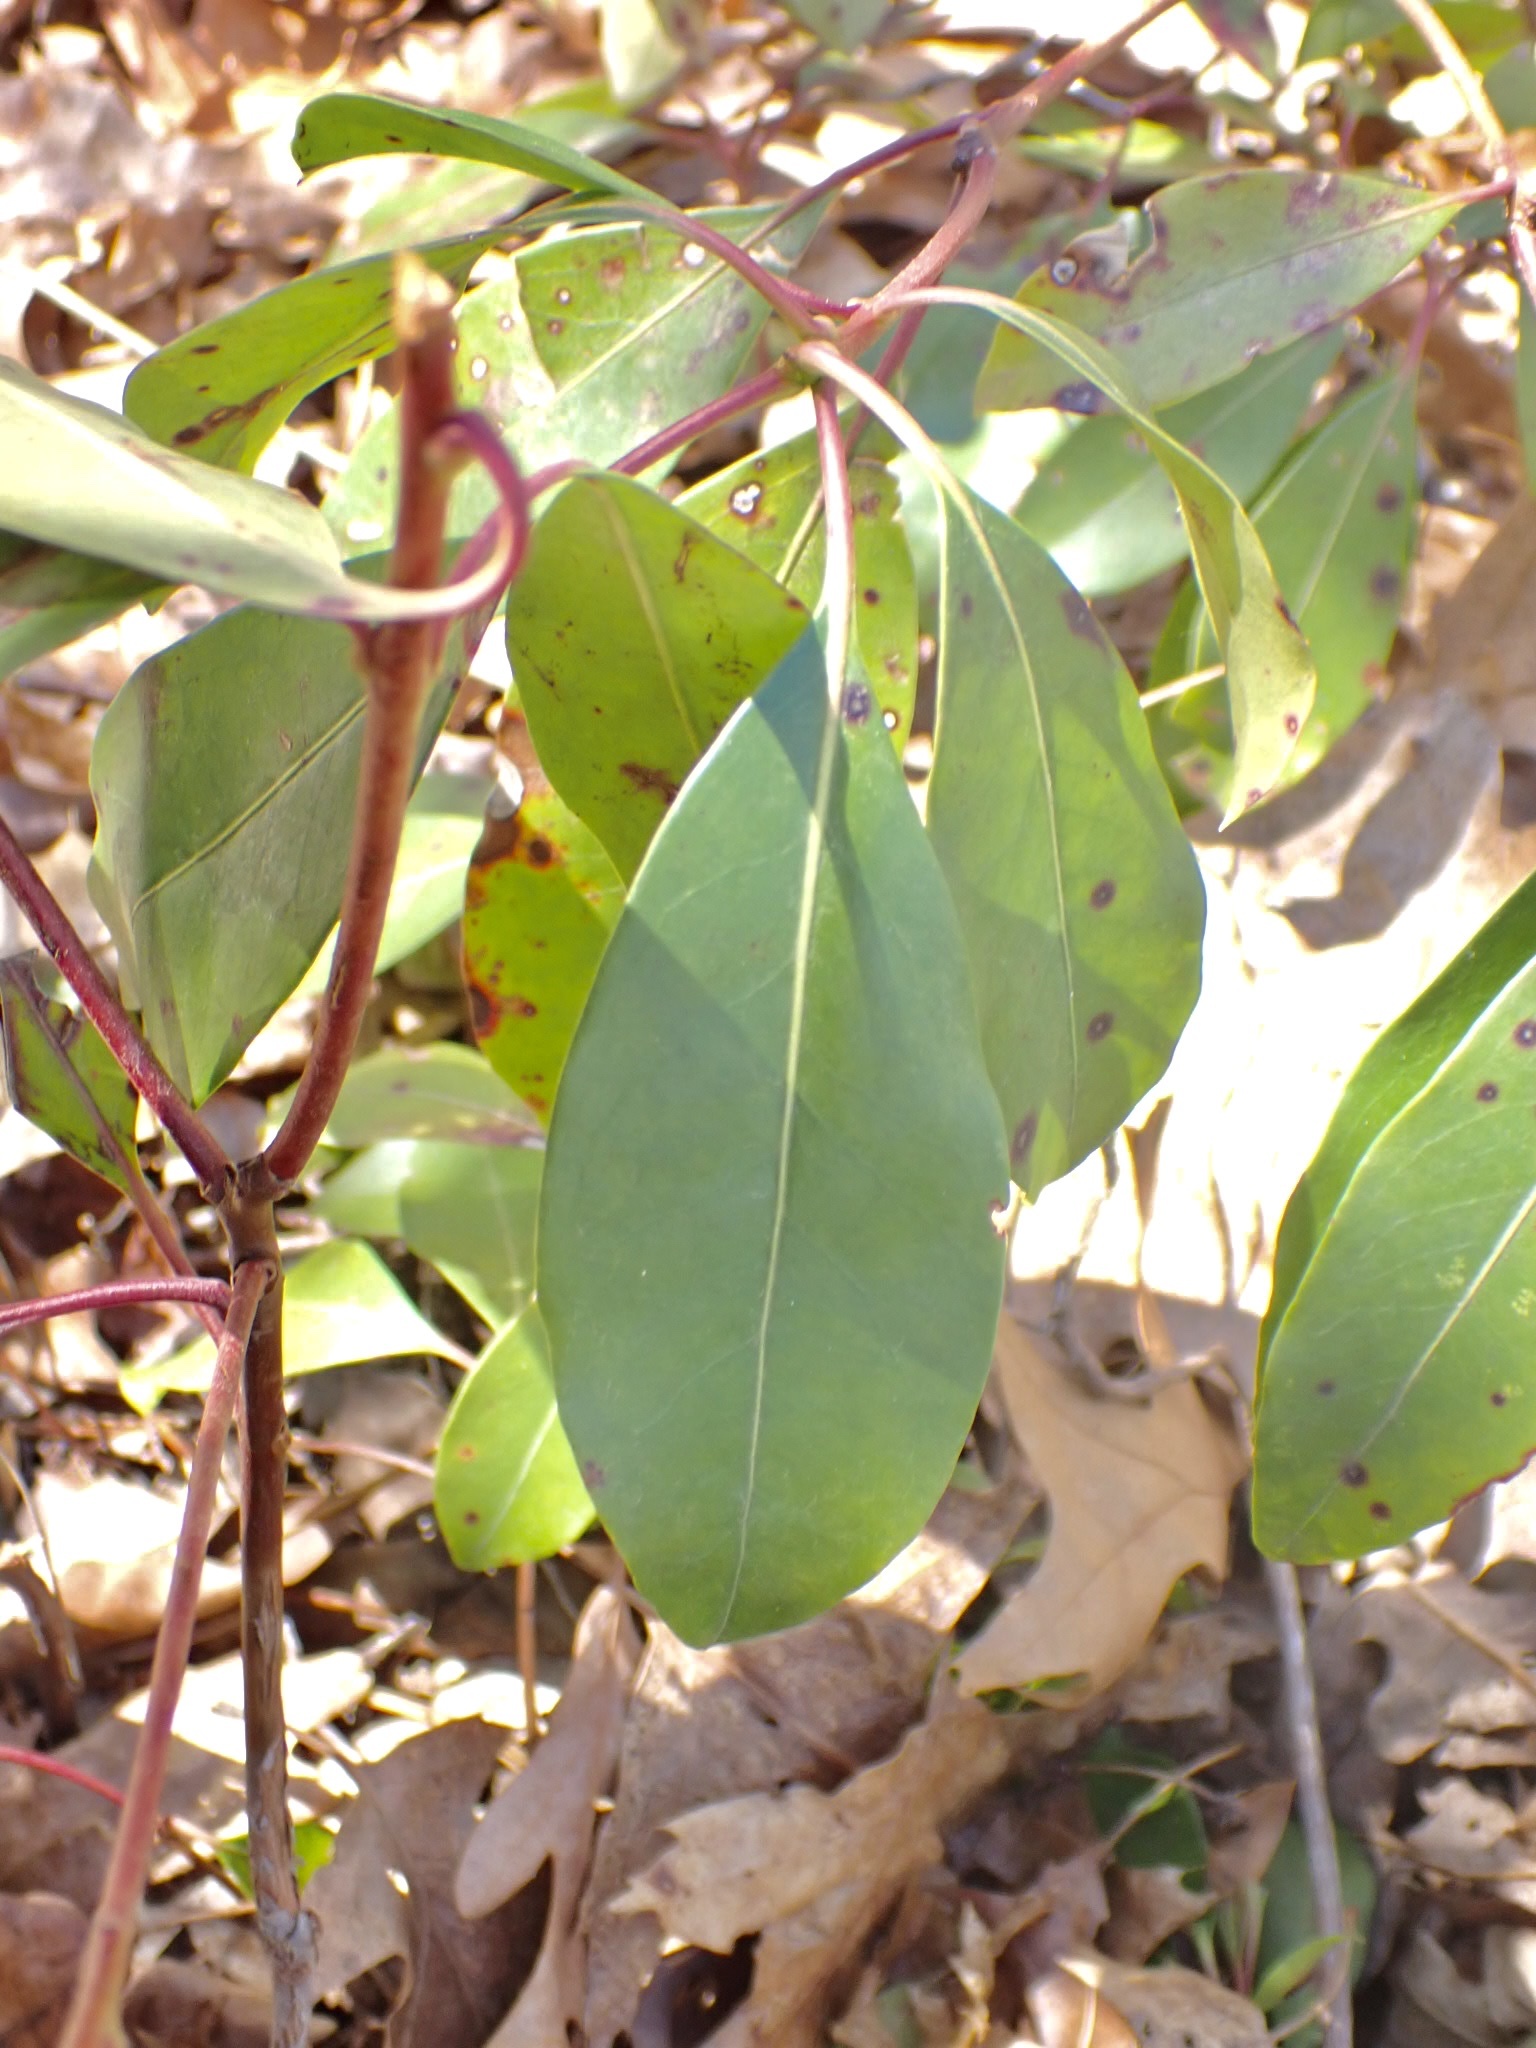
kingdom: Plantae
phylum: Tracheophyta
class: Magnoliopsida
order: Ericales
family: Ericaceae
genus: Kalmia
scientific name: Kalmia latifolia
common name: Mountain-laurel
